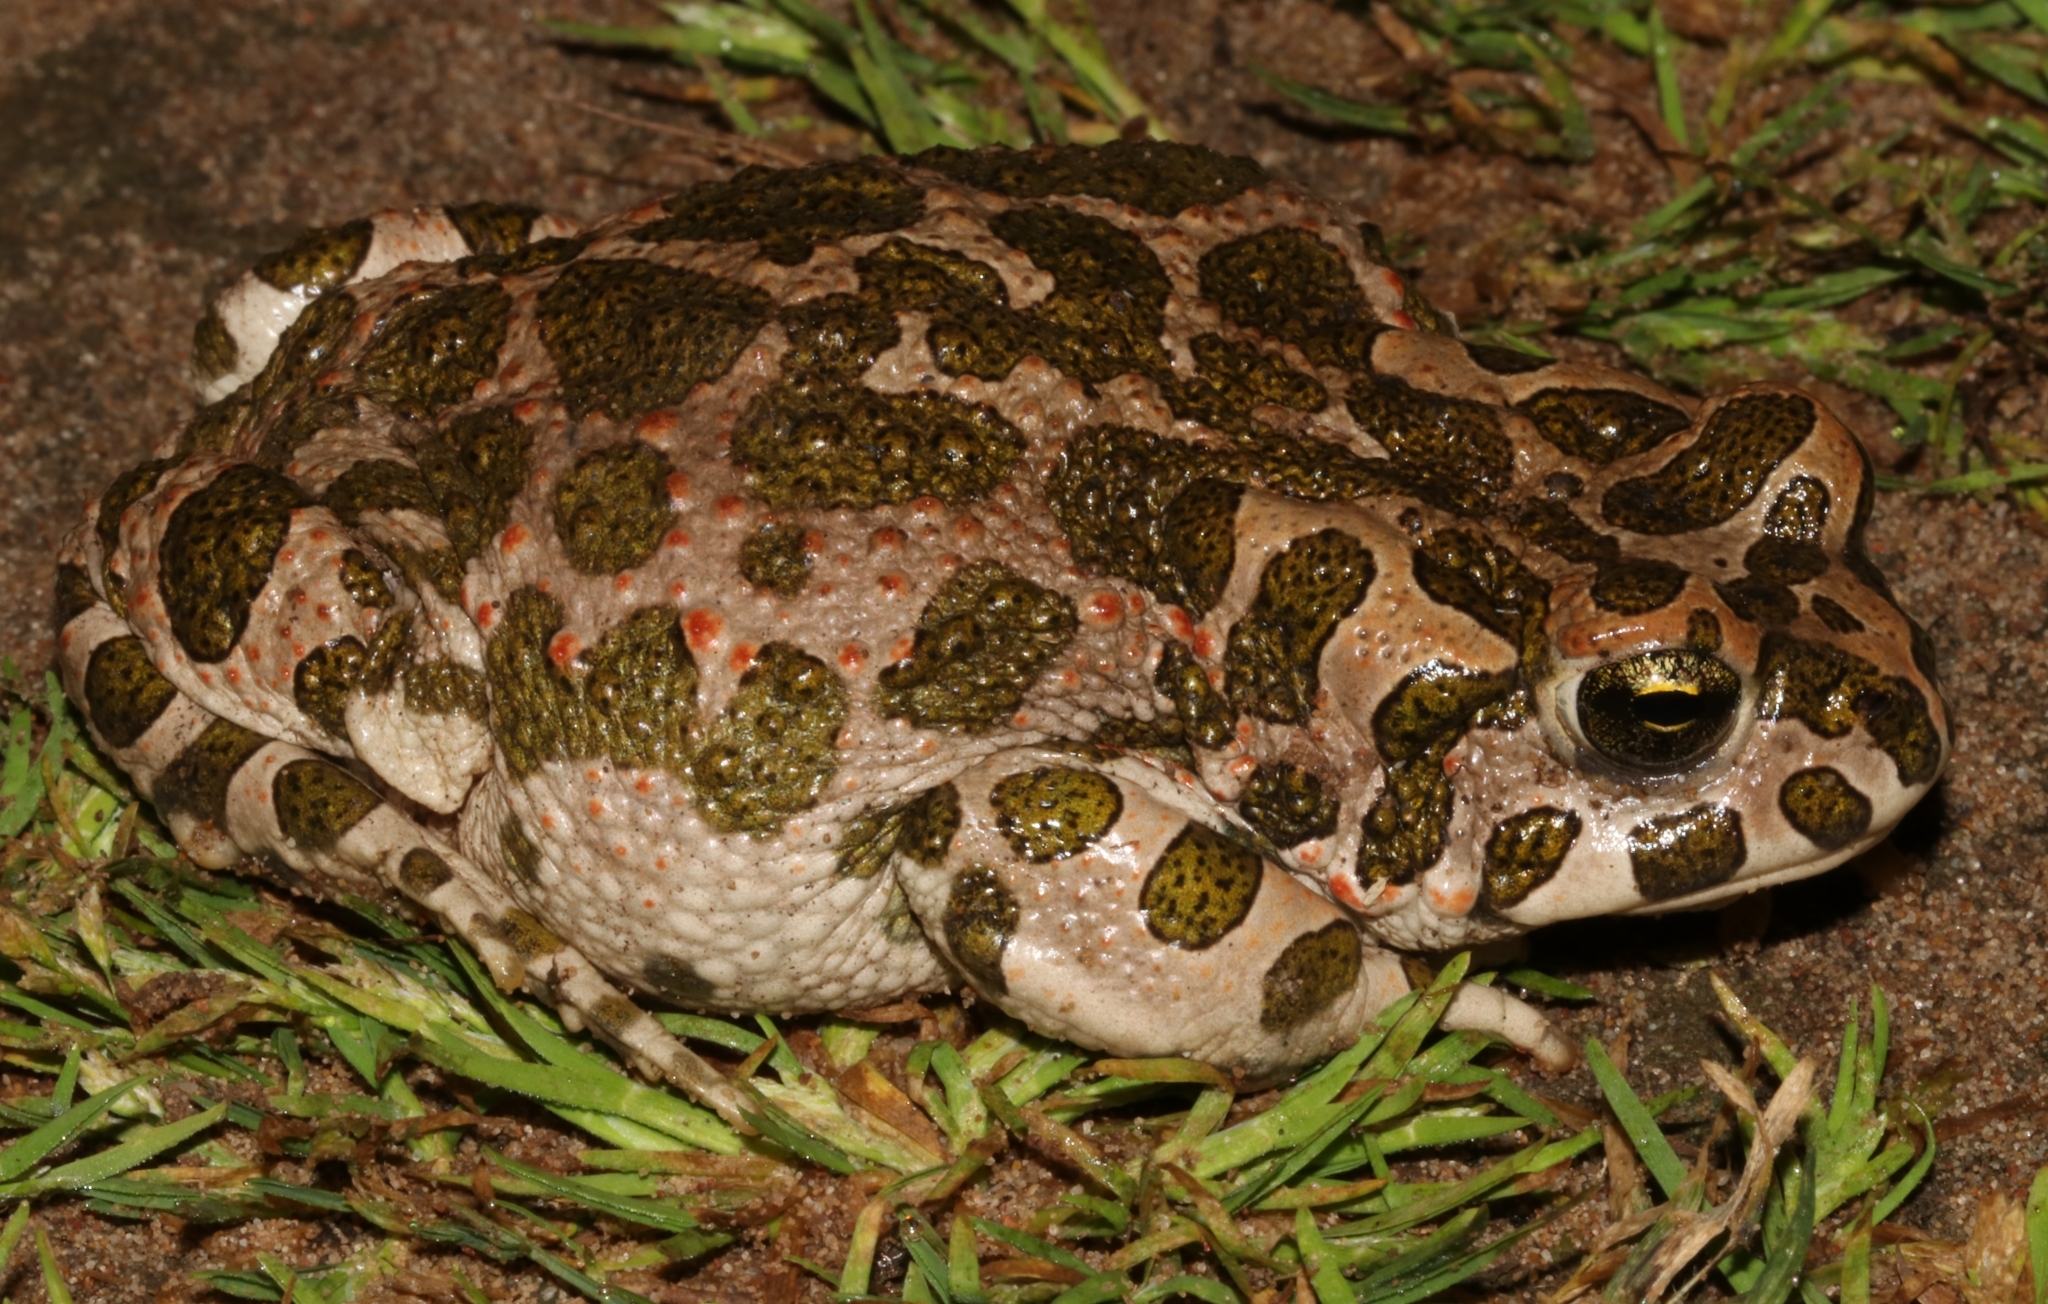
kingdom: Animalia
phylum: Chordata
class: Amphibia
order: Anura
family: Bufonidae
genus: Bufotes
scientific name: Bufotes viridis
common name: European green toad
